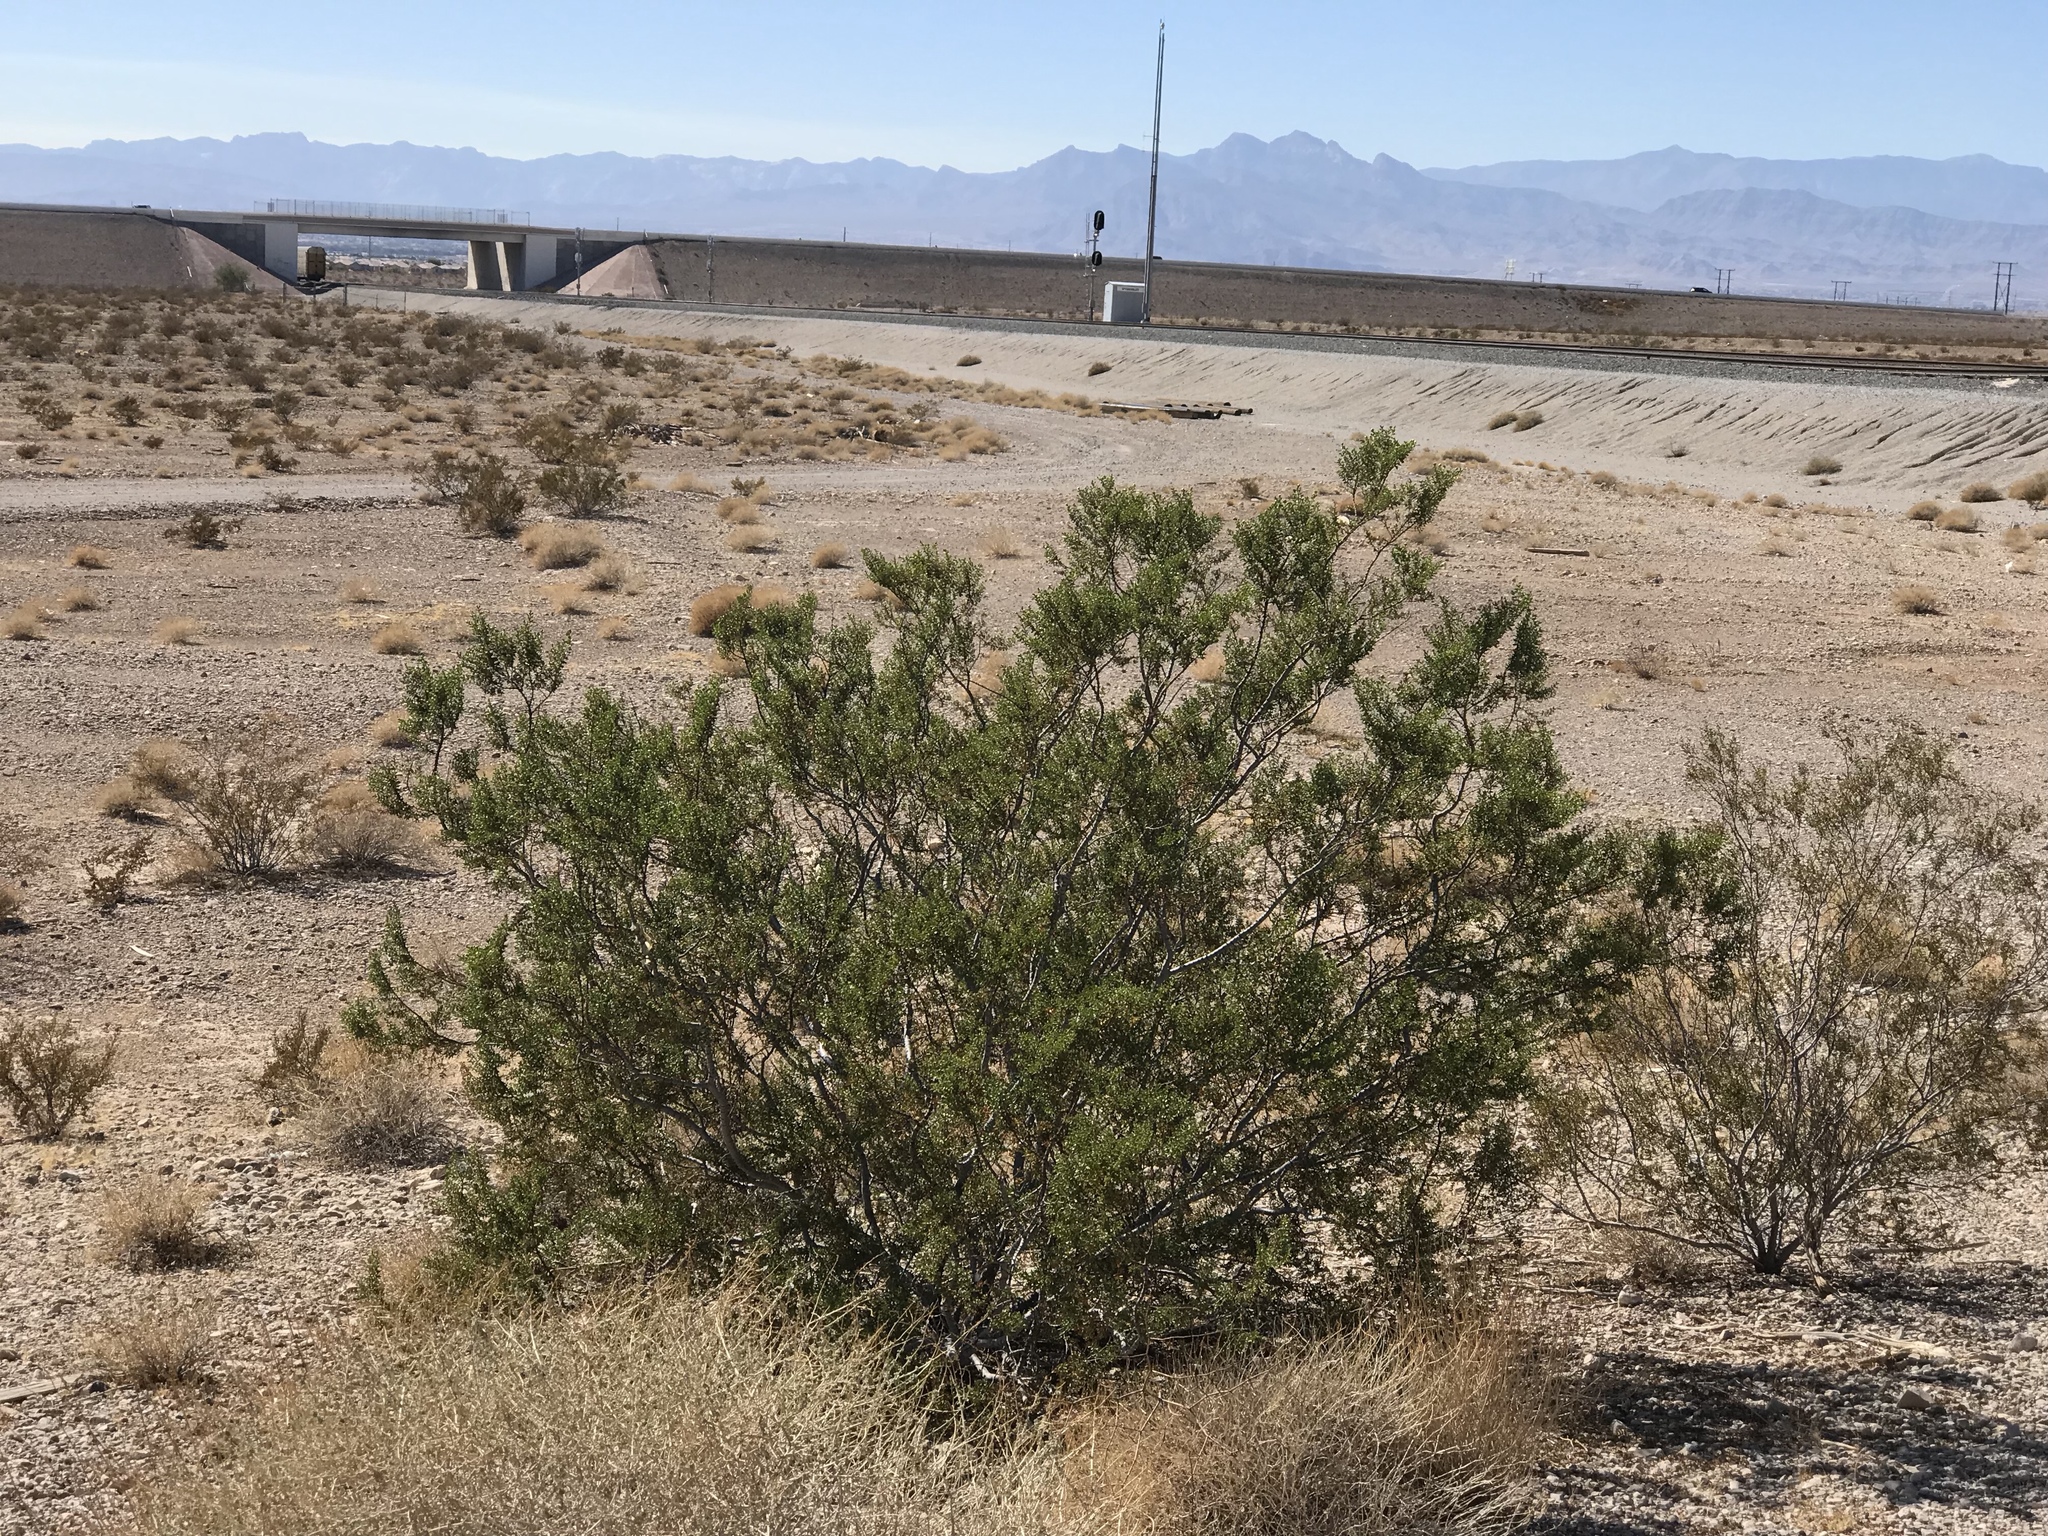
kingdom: Plantae
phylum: Tracheophyta
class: Magnoliopsida
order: Zygophyllales
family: Zygophyllaceae
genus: Larrea
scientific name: Larrea tridentata
